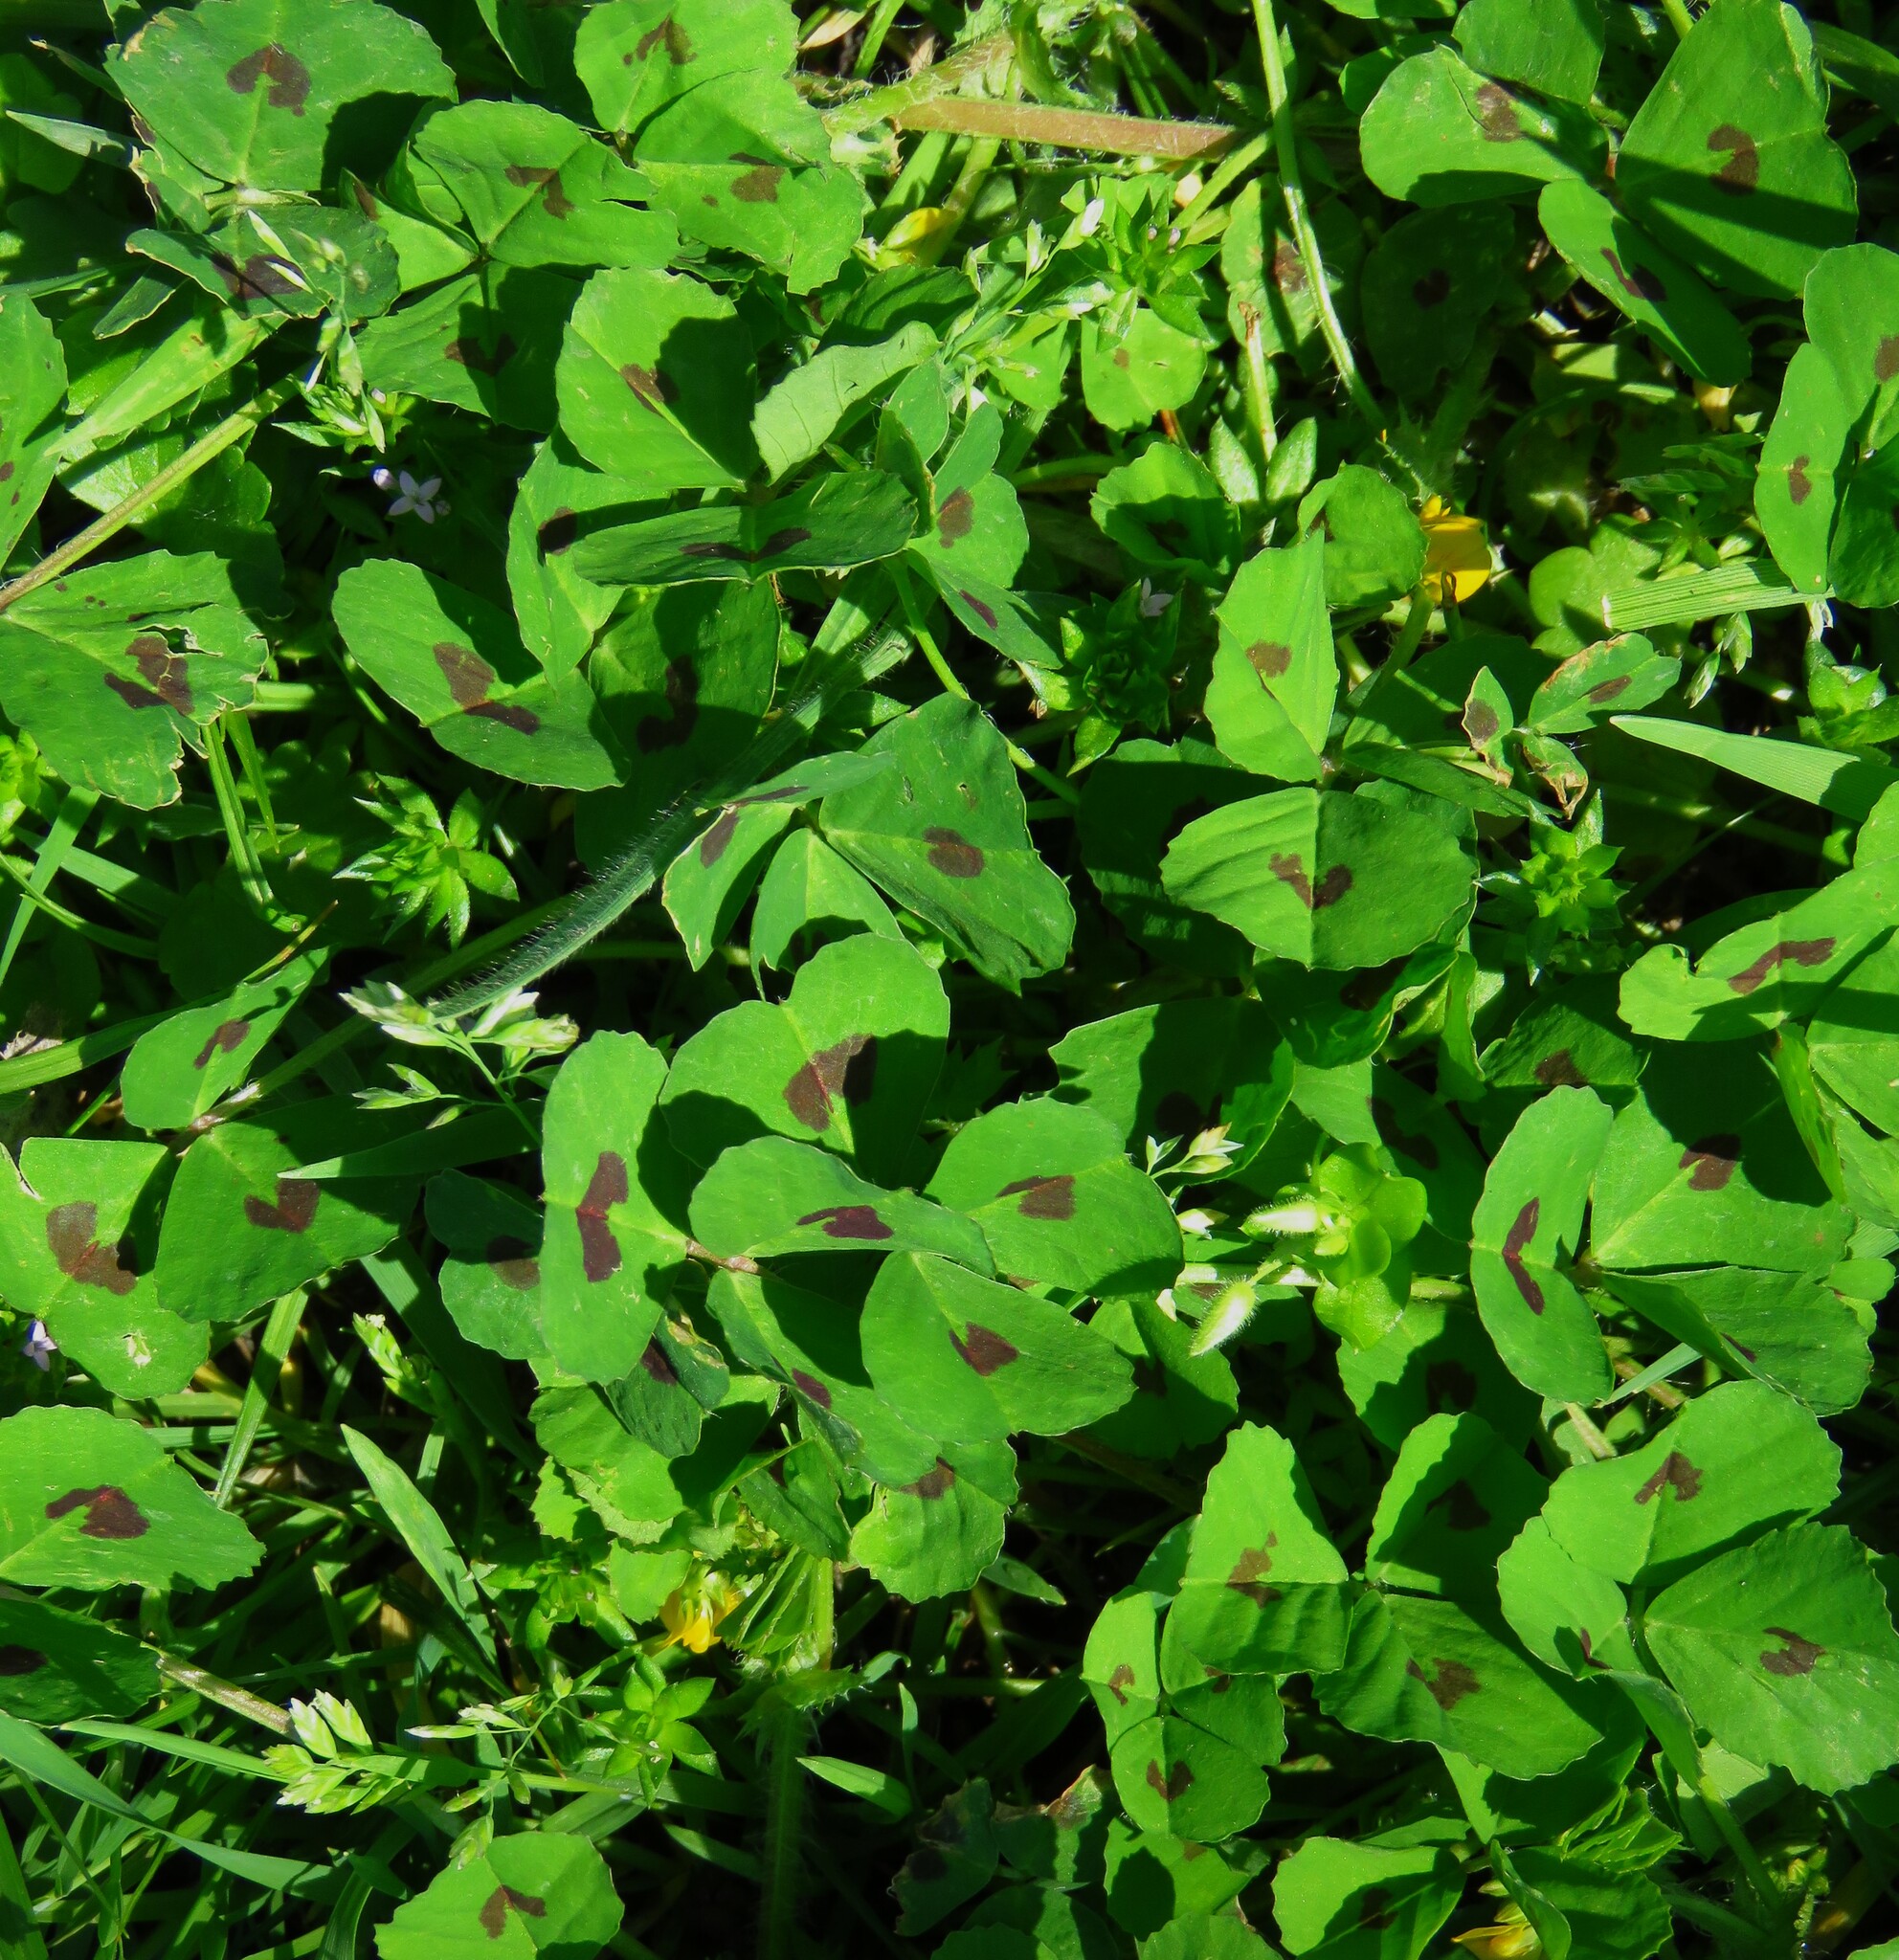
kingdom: Plantae
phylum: Tracheophyta
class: Magnoliopsida
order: Fabales
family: Fabaceae
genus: Medicago
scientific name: Medicago arabica
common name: Spotted medick
